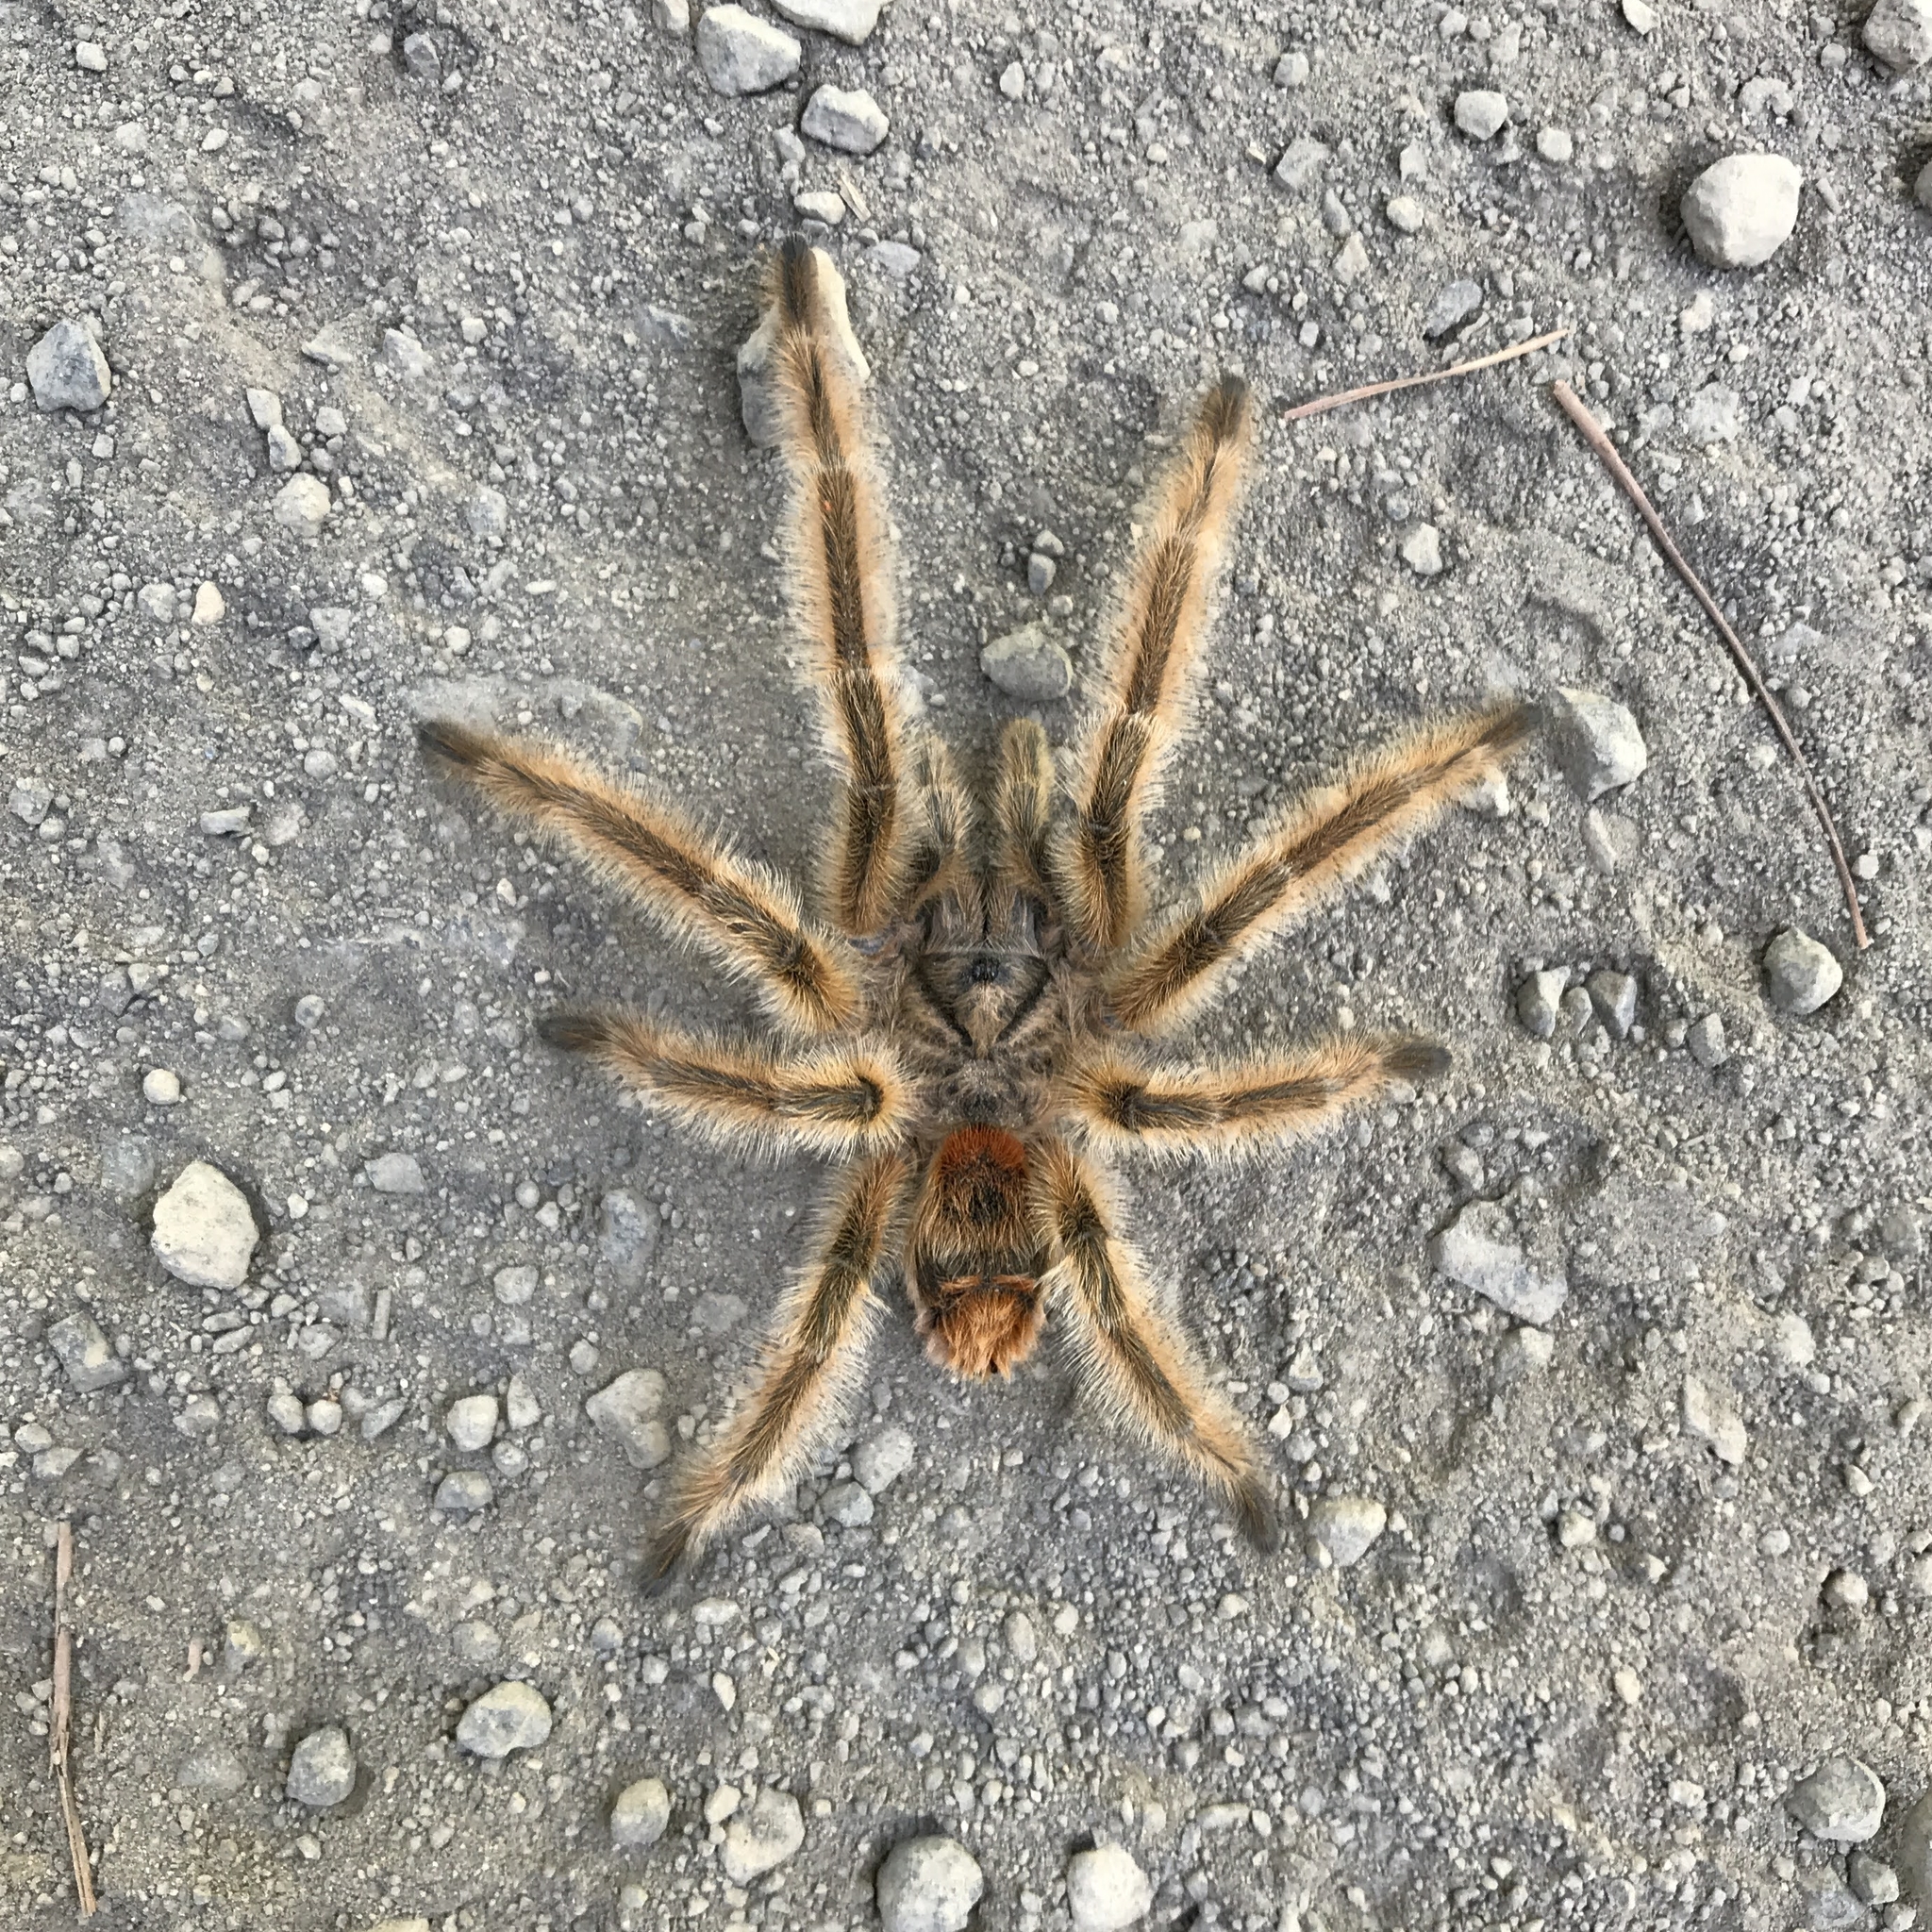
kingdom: Animalia
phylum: Arthropoda
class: Arachnida
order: Araneae
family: Theraphosidae
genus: Phrixotrichus
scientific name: Phrixotrichus vulpinus
